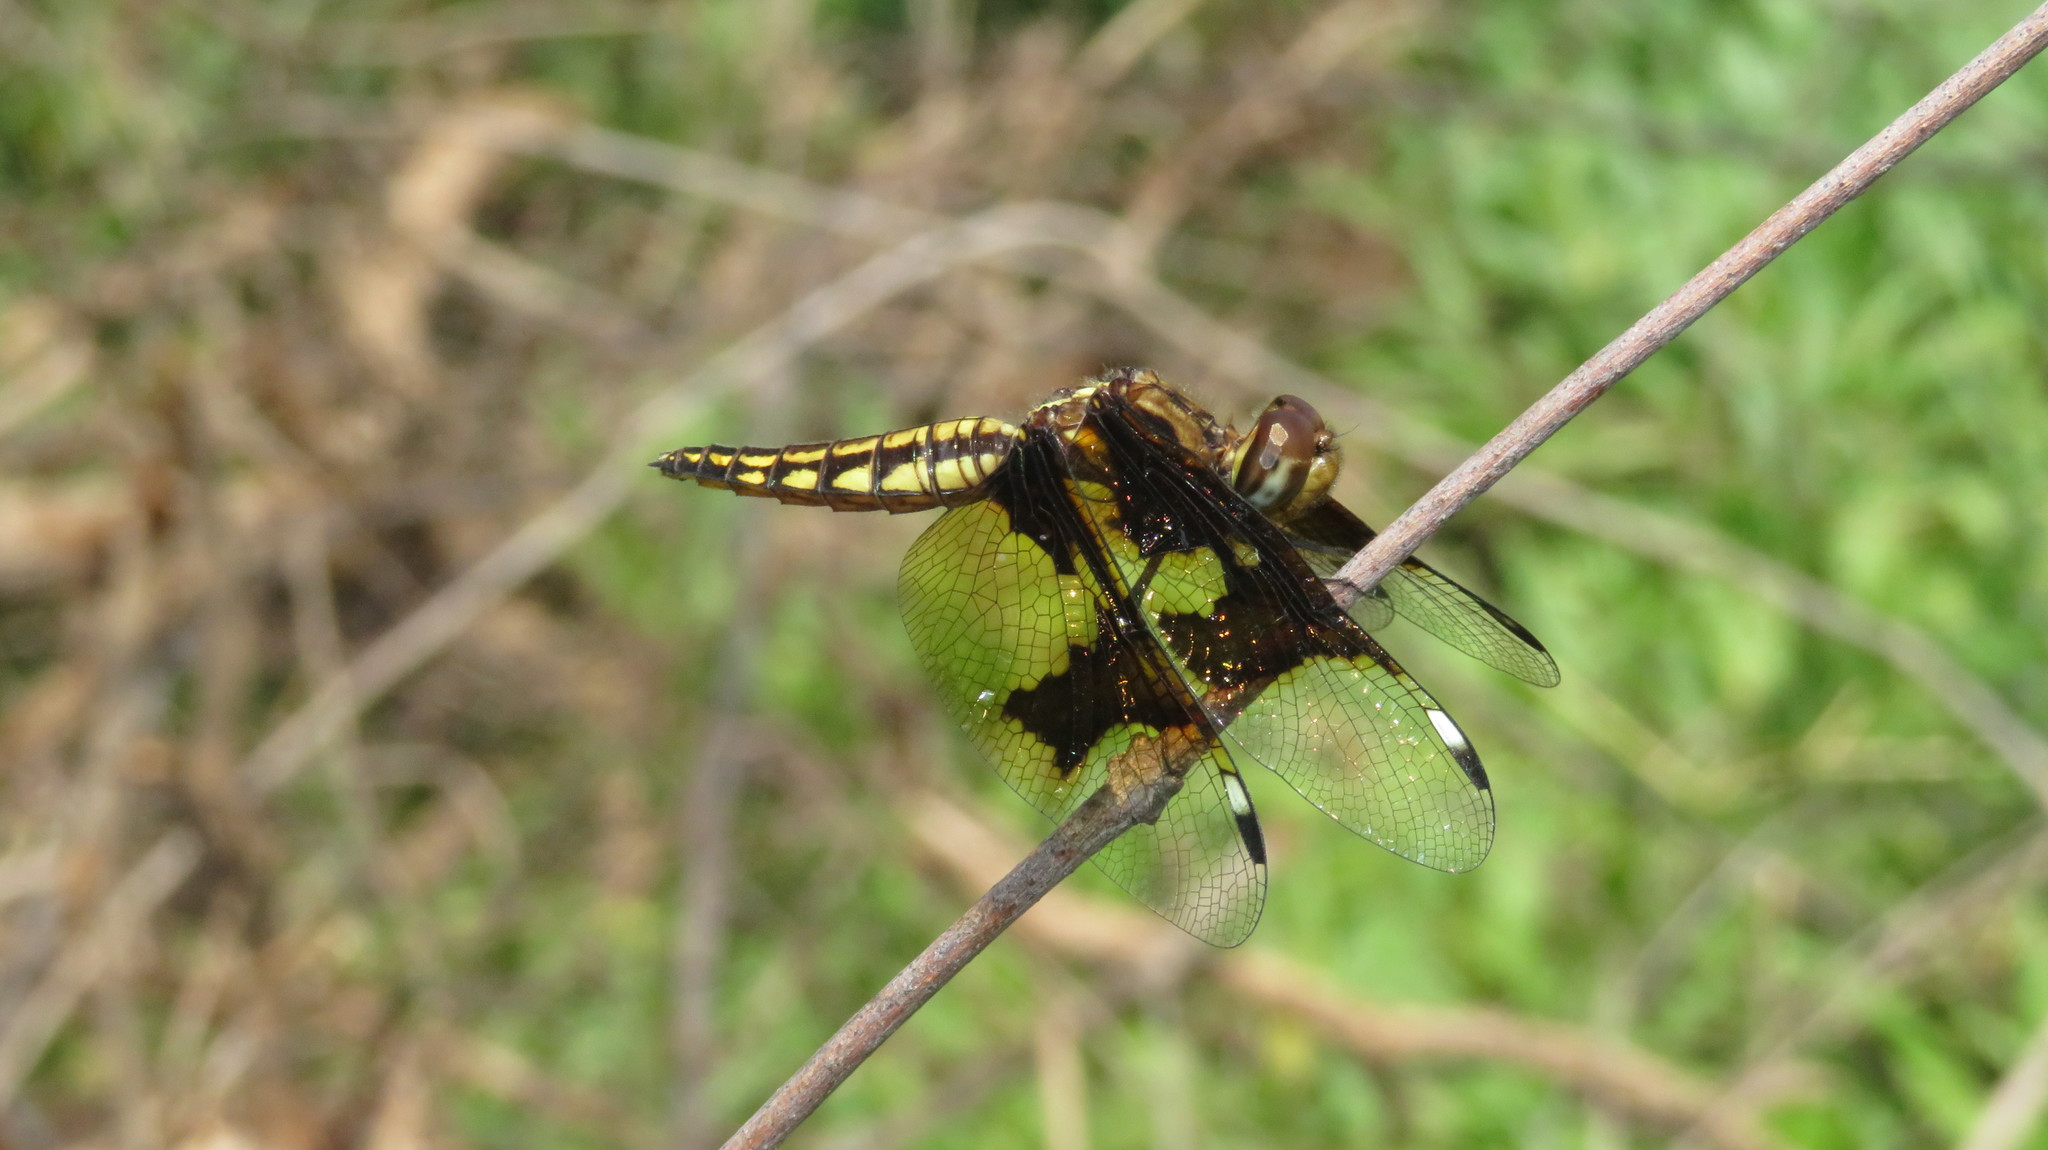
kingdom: Animalia
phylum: Arthropoda
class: Insecta
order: Odonata
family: Libellulidae
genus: Palpopleura
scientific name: Palpopleura lucia
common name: Lucia widow
